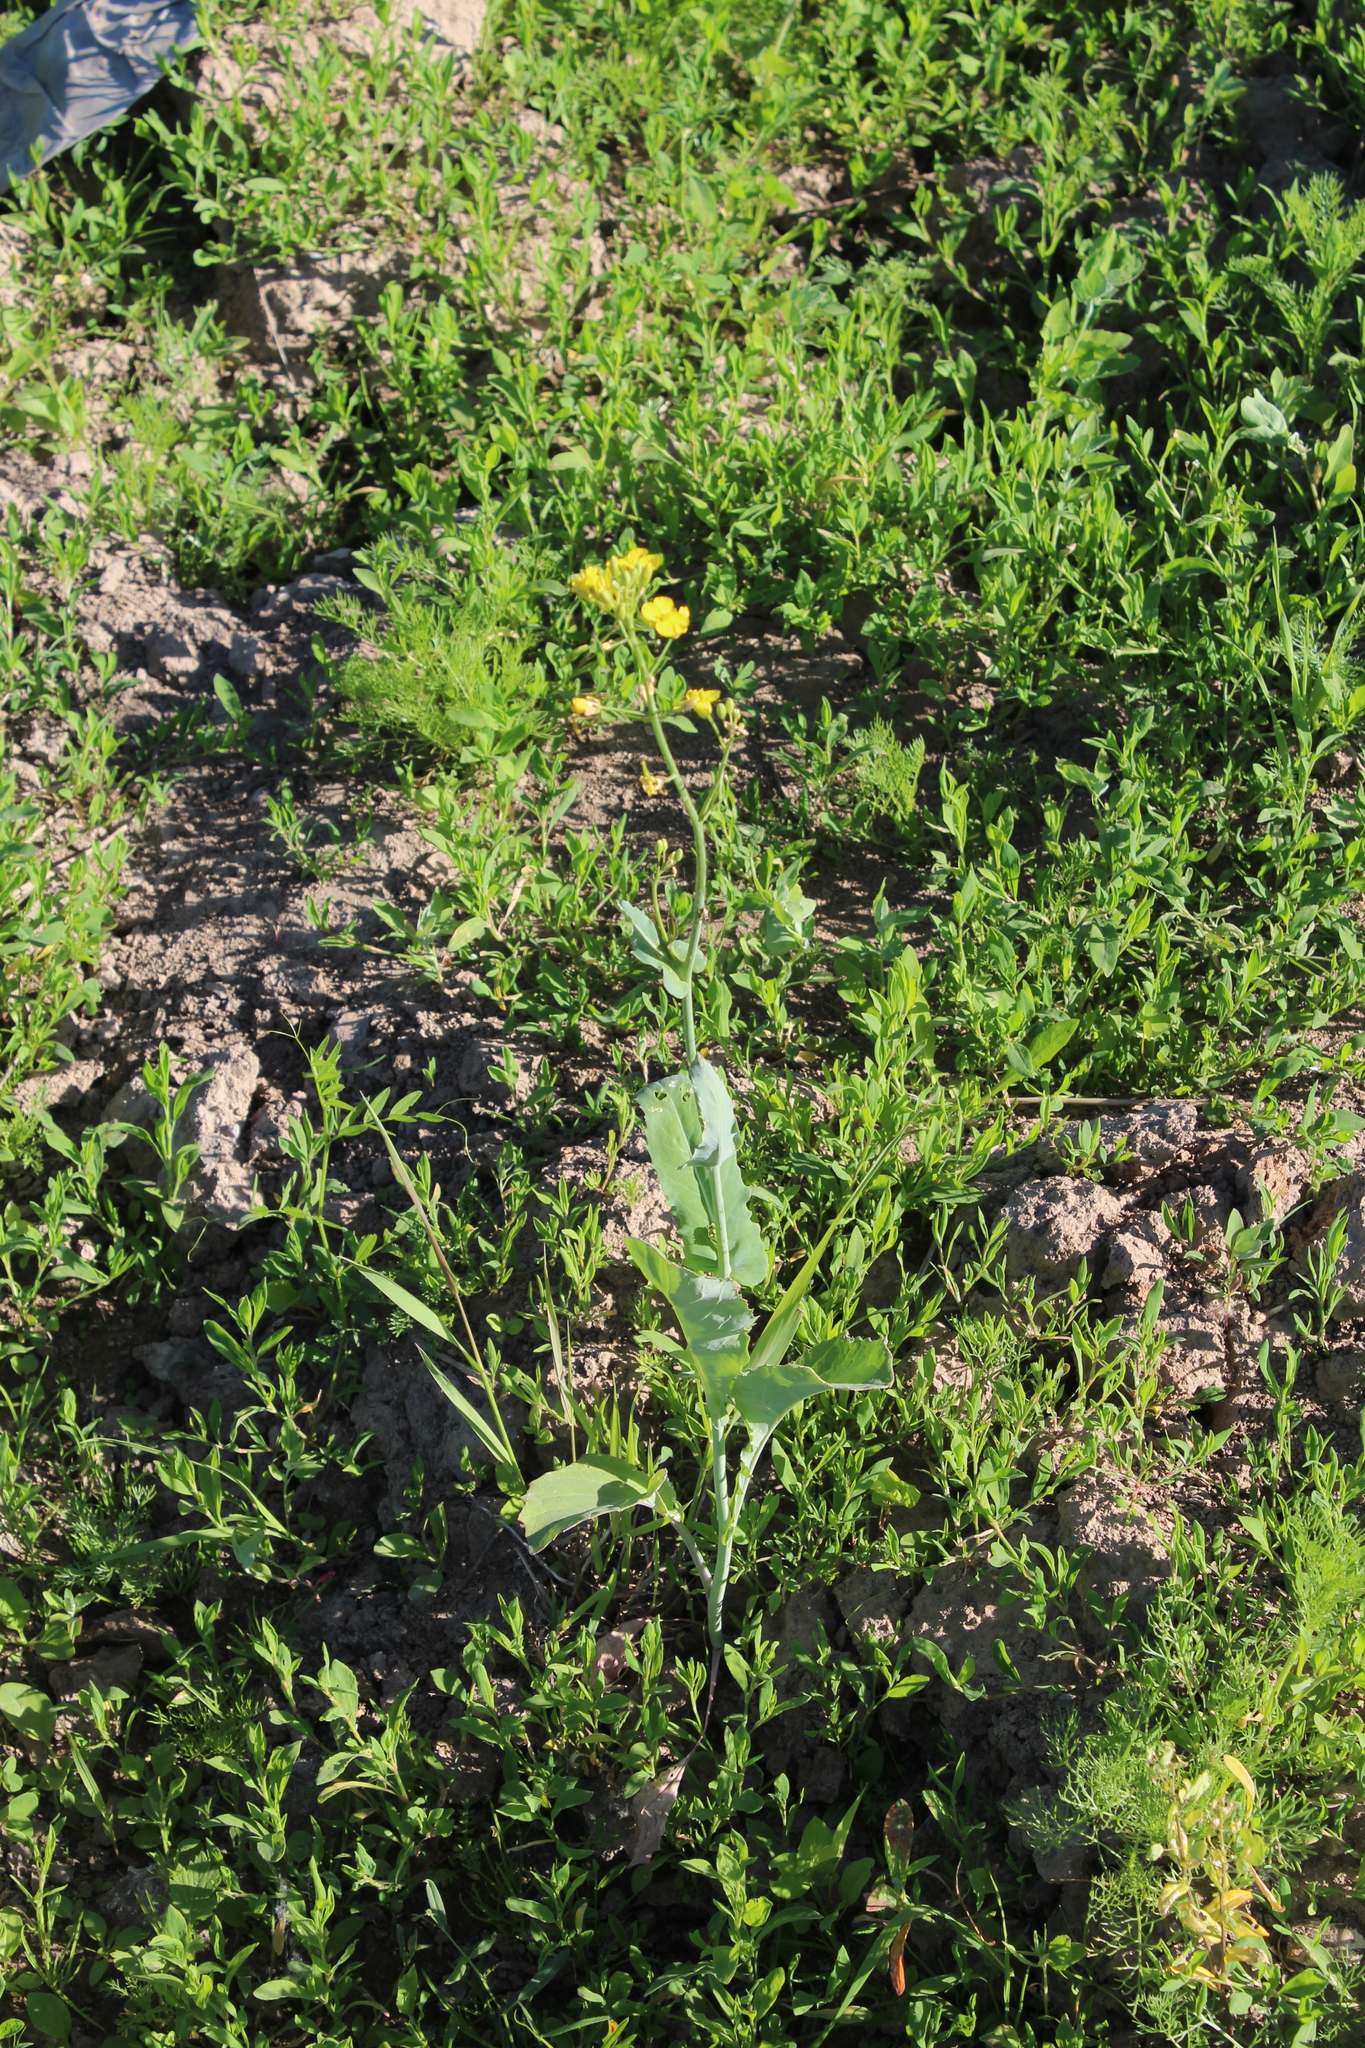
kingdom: Plantae
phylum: Tracheophyta
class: Magnoliopsida
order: Brassicales
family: Brassicaceae
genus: Brassica
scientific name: Brassica rapa
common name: Field mustard
